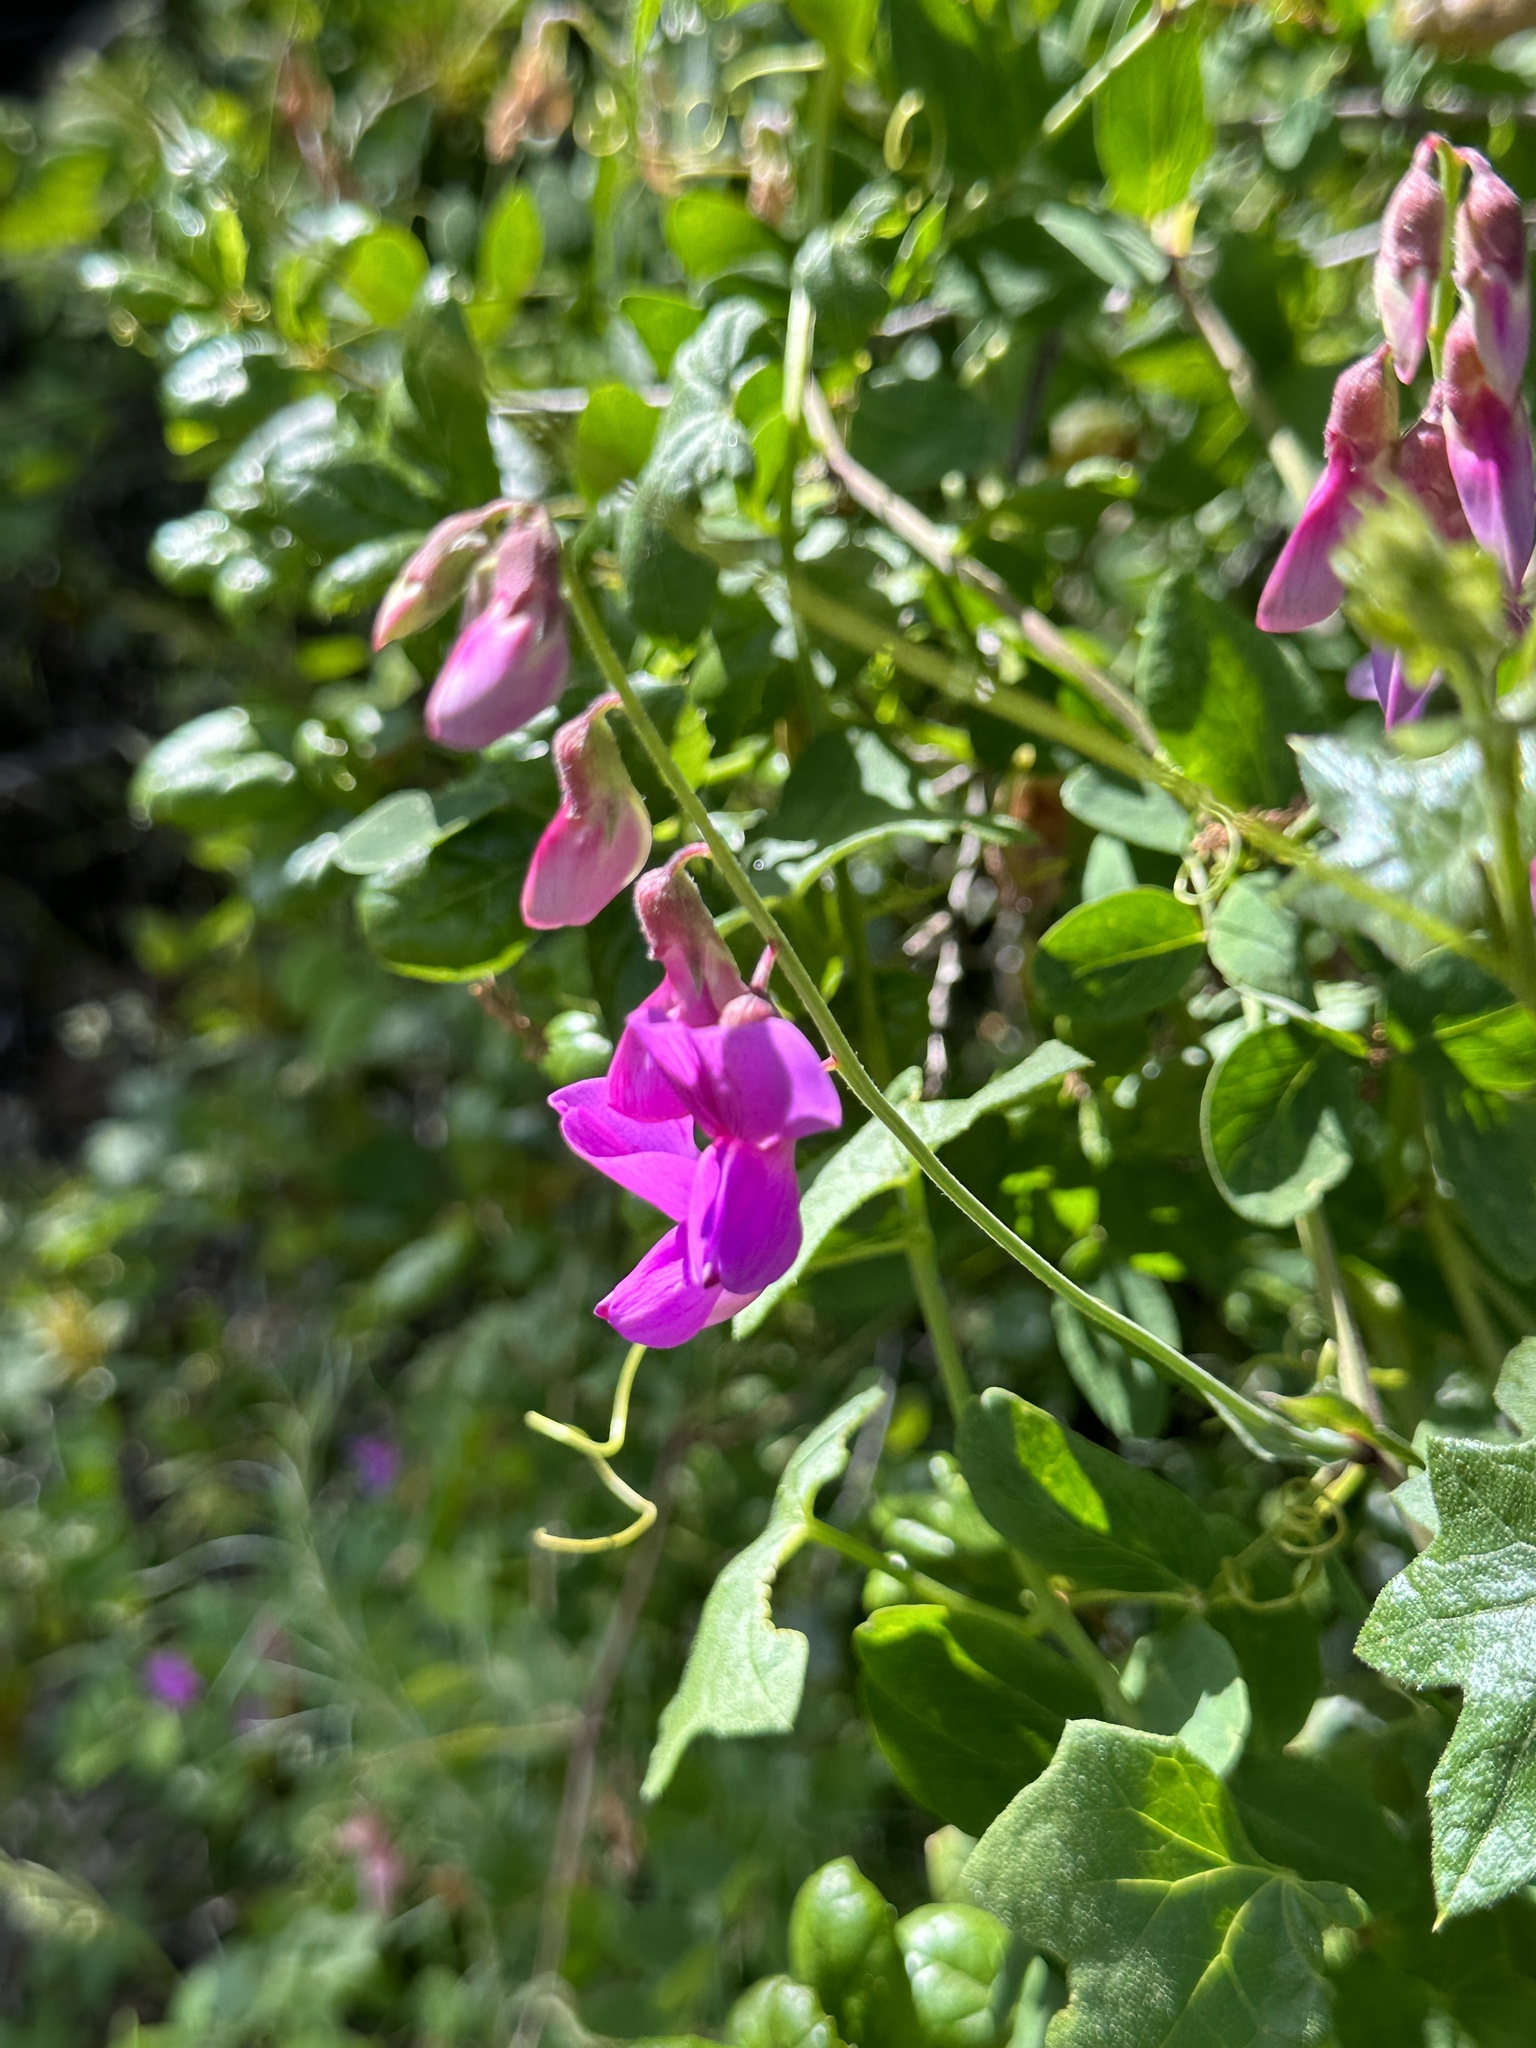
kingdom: Plantae
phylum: Tracheophyta
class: Magnoliopsida
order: Fabales
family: Fabaceae
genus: Lathyrus
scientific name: Lathyrus vestitus
